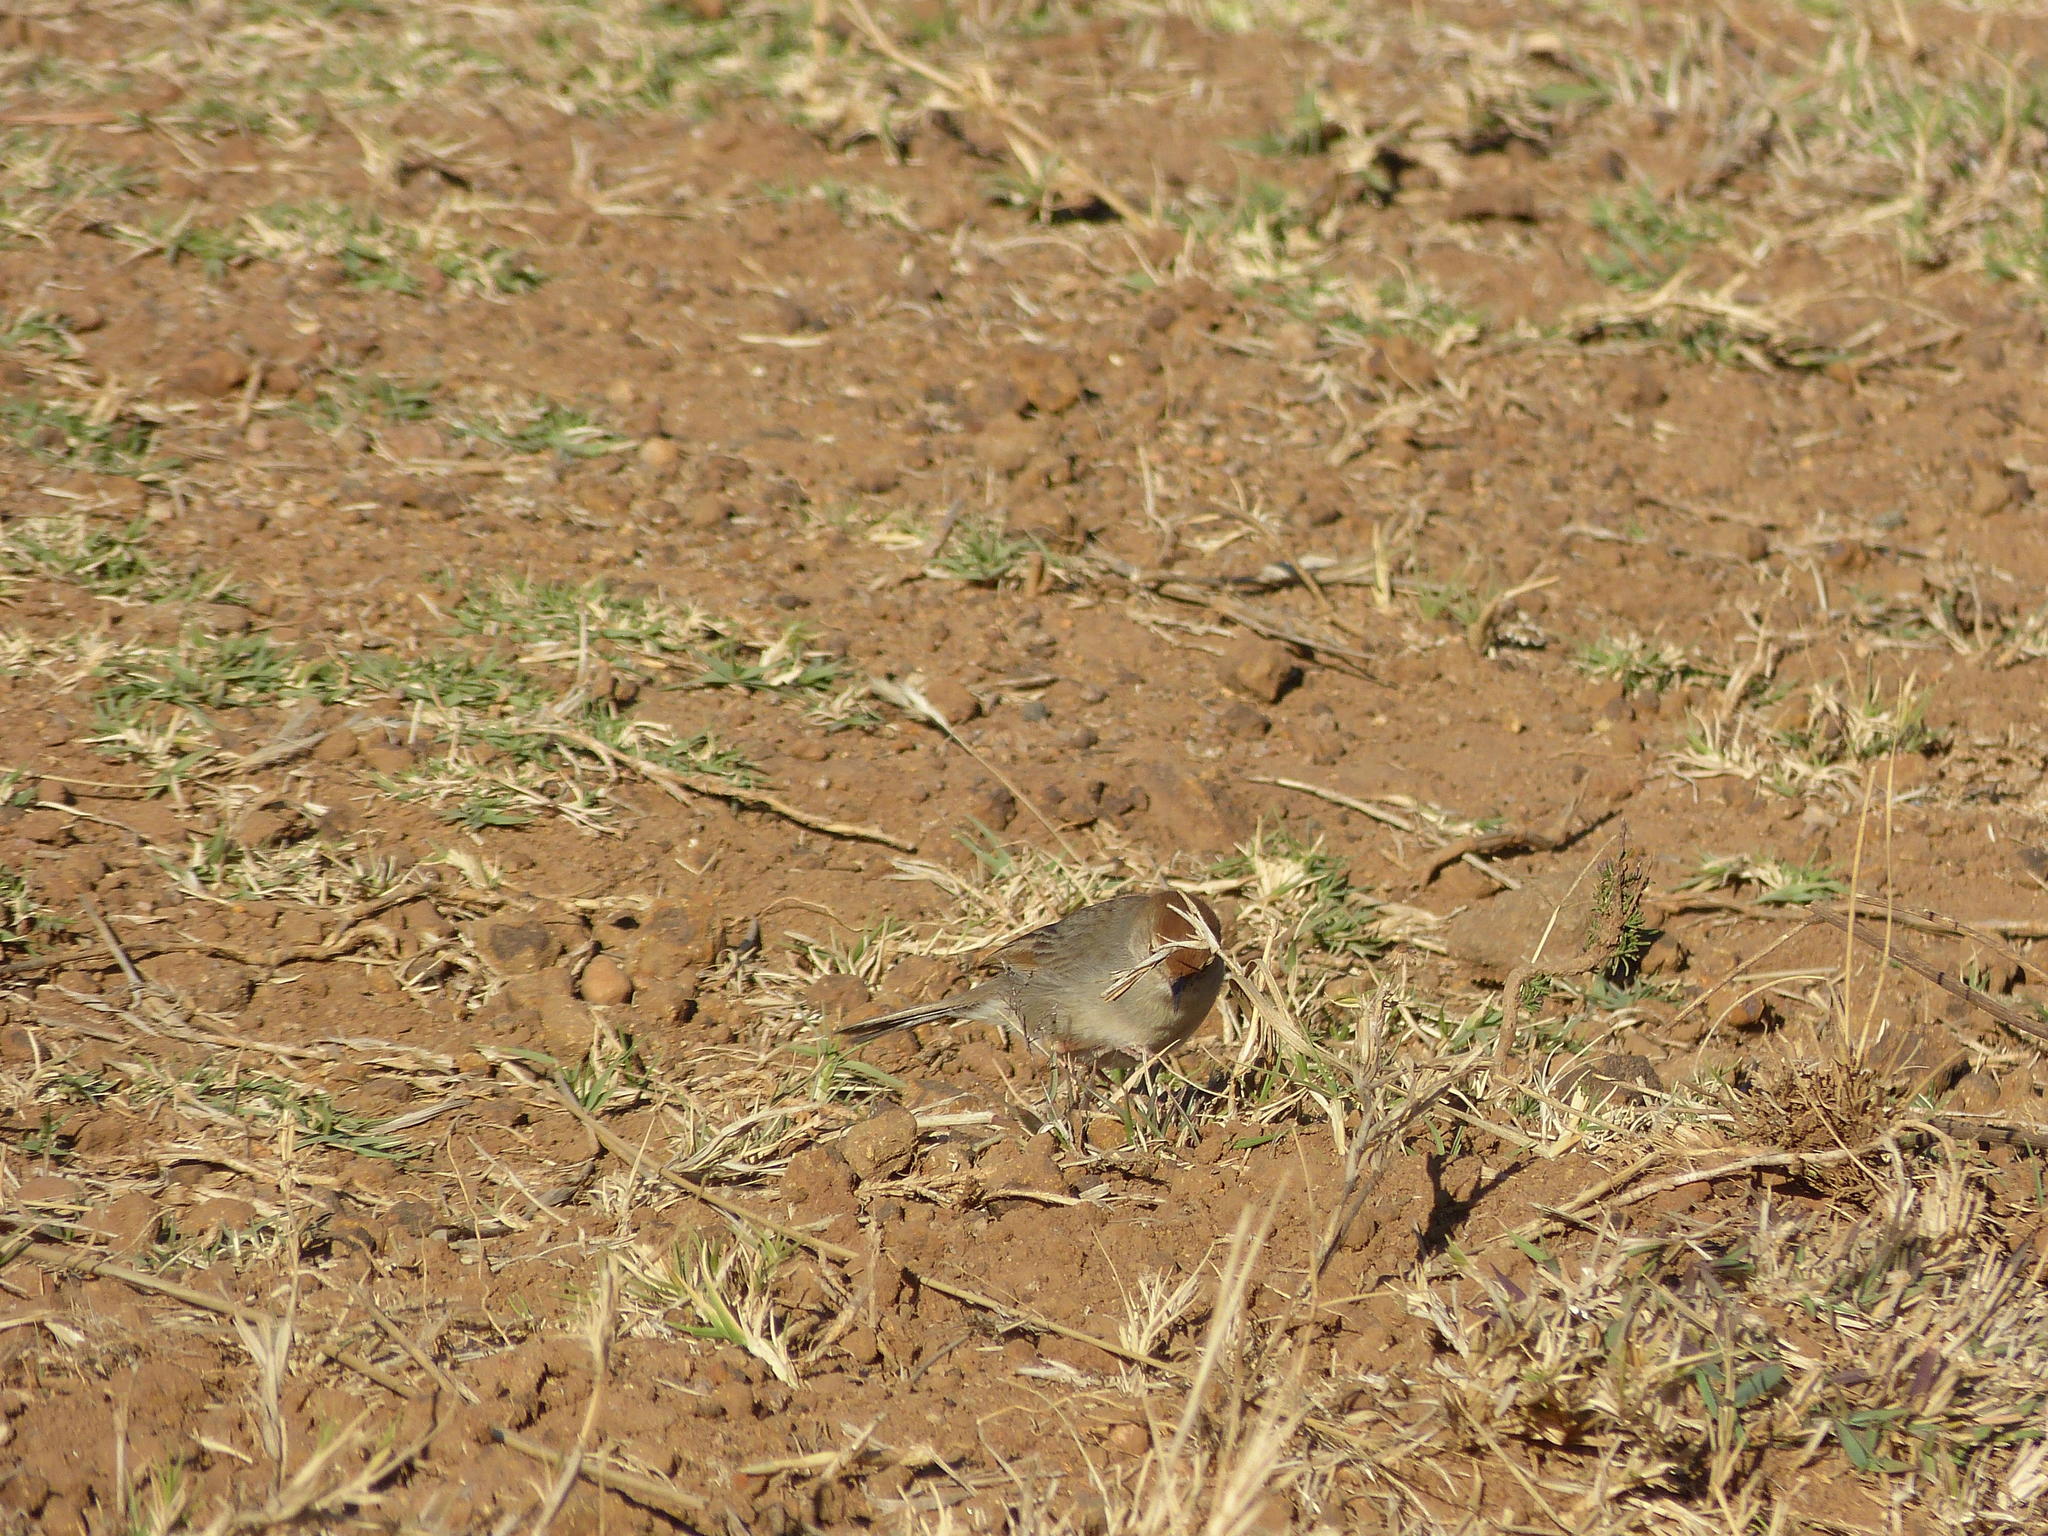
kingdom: Animalia
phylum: Chordata
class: Aves
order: Passeriformes
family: Cisticolidae
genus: Cisticola
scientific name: Cisticola fulvicapilla
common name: Neddicky
